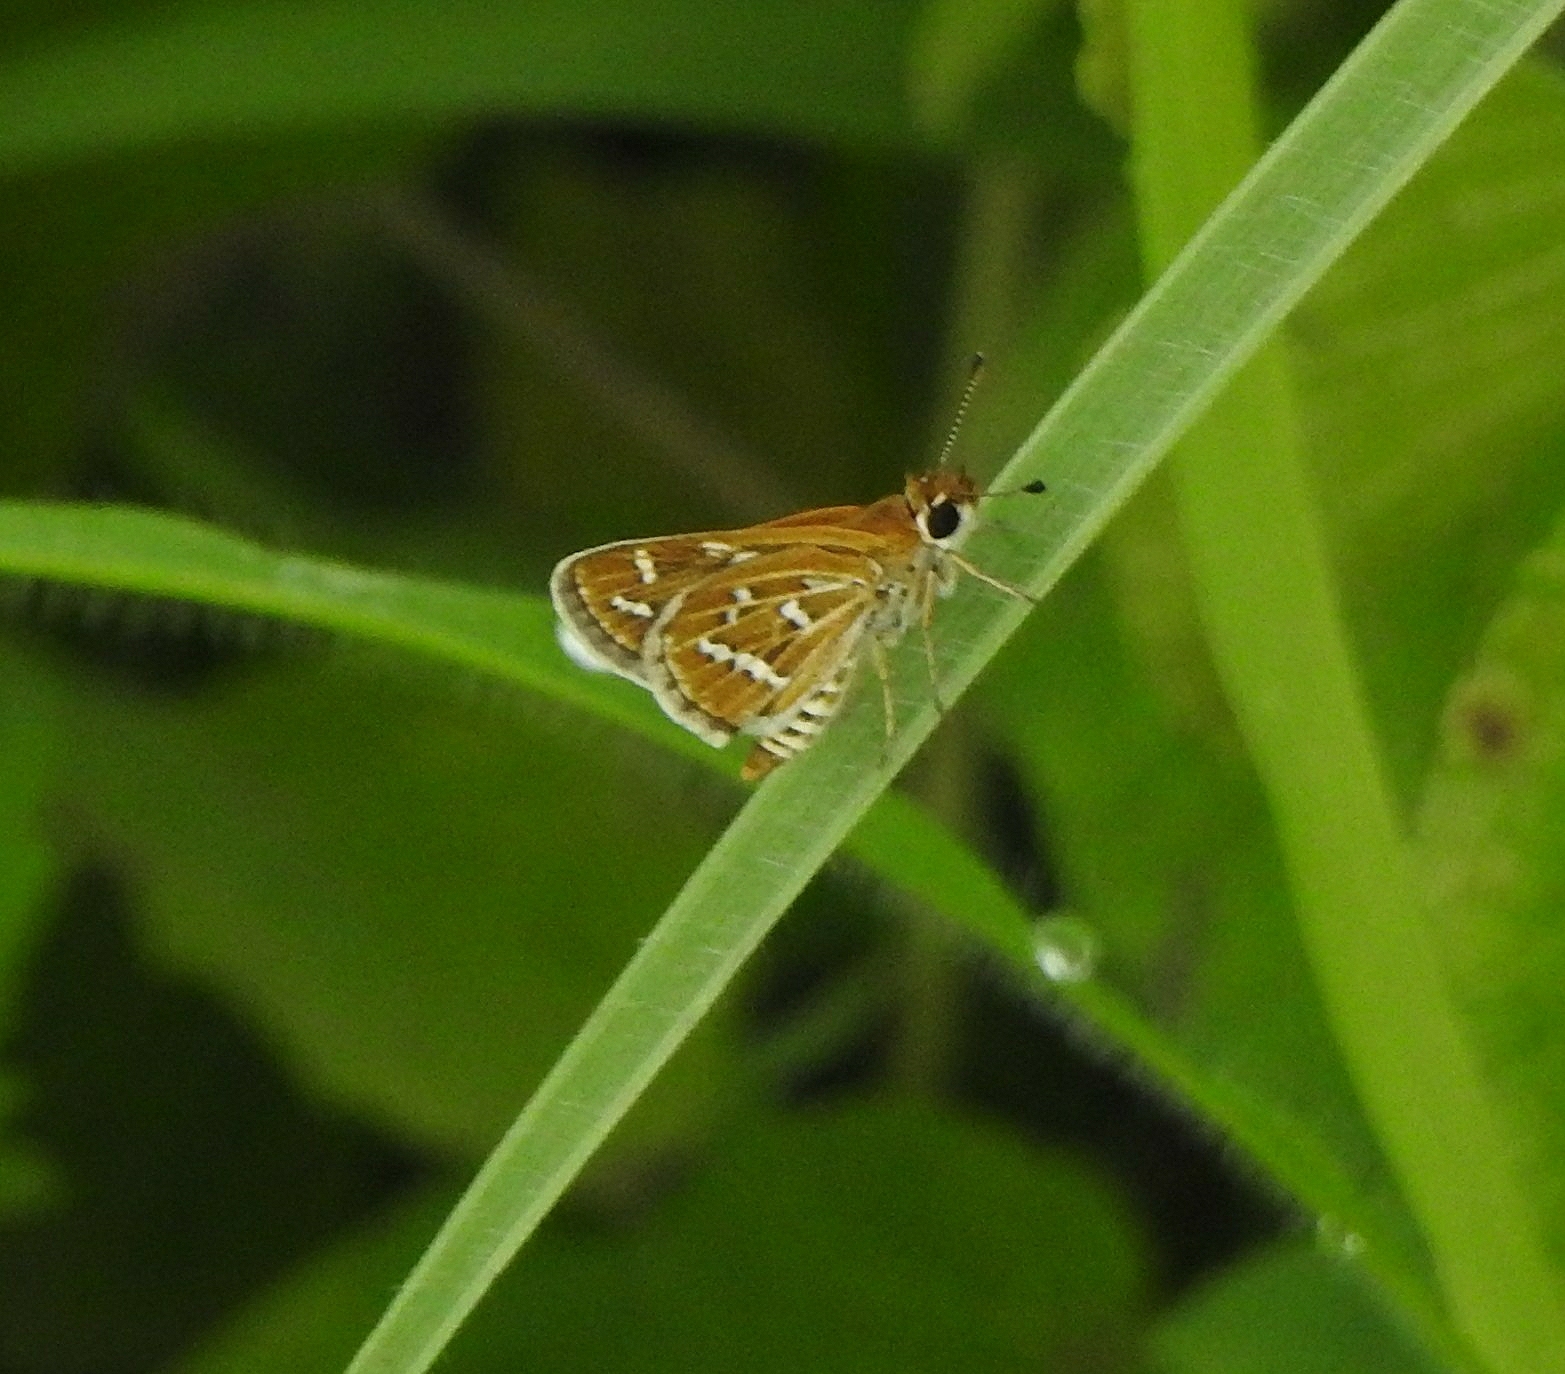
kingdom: Animalia
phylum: Arthropoda
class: Insecta
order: Lepidoptera
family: Hesperiidae
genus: Taractrocera
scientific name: Taractrocera maevius
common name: Common grass-dart
